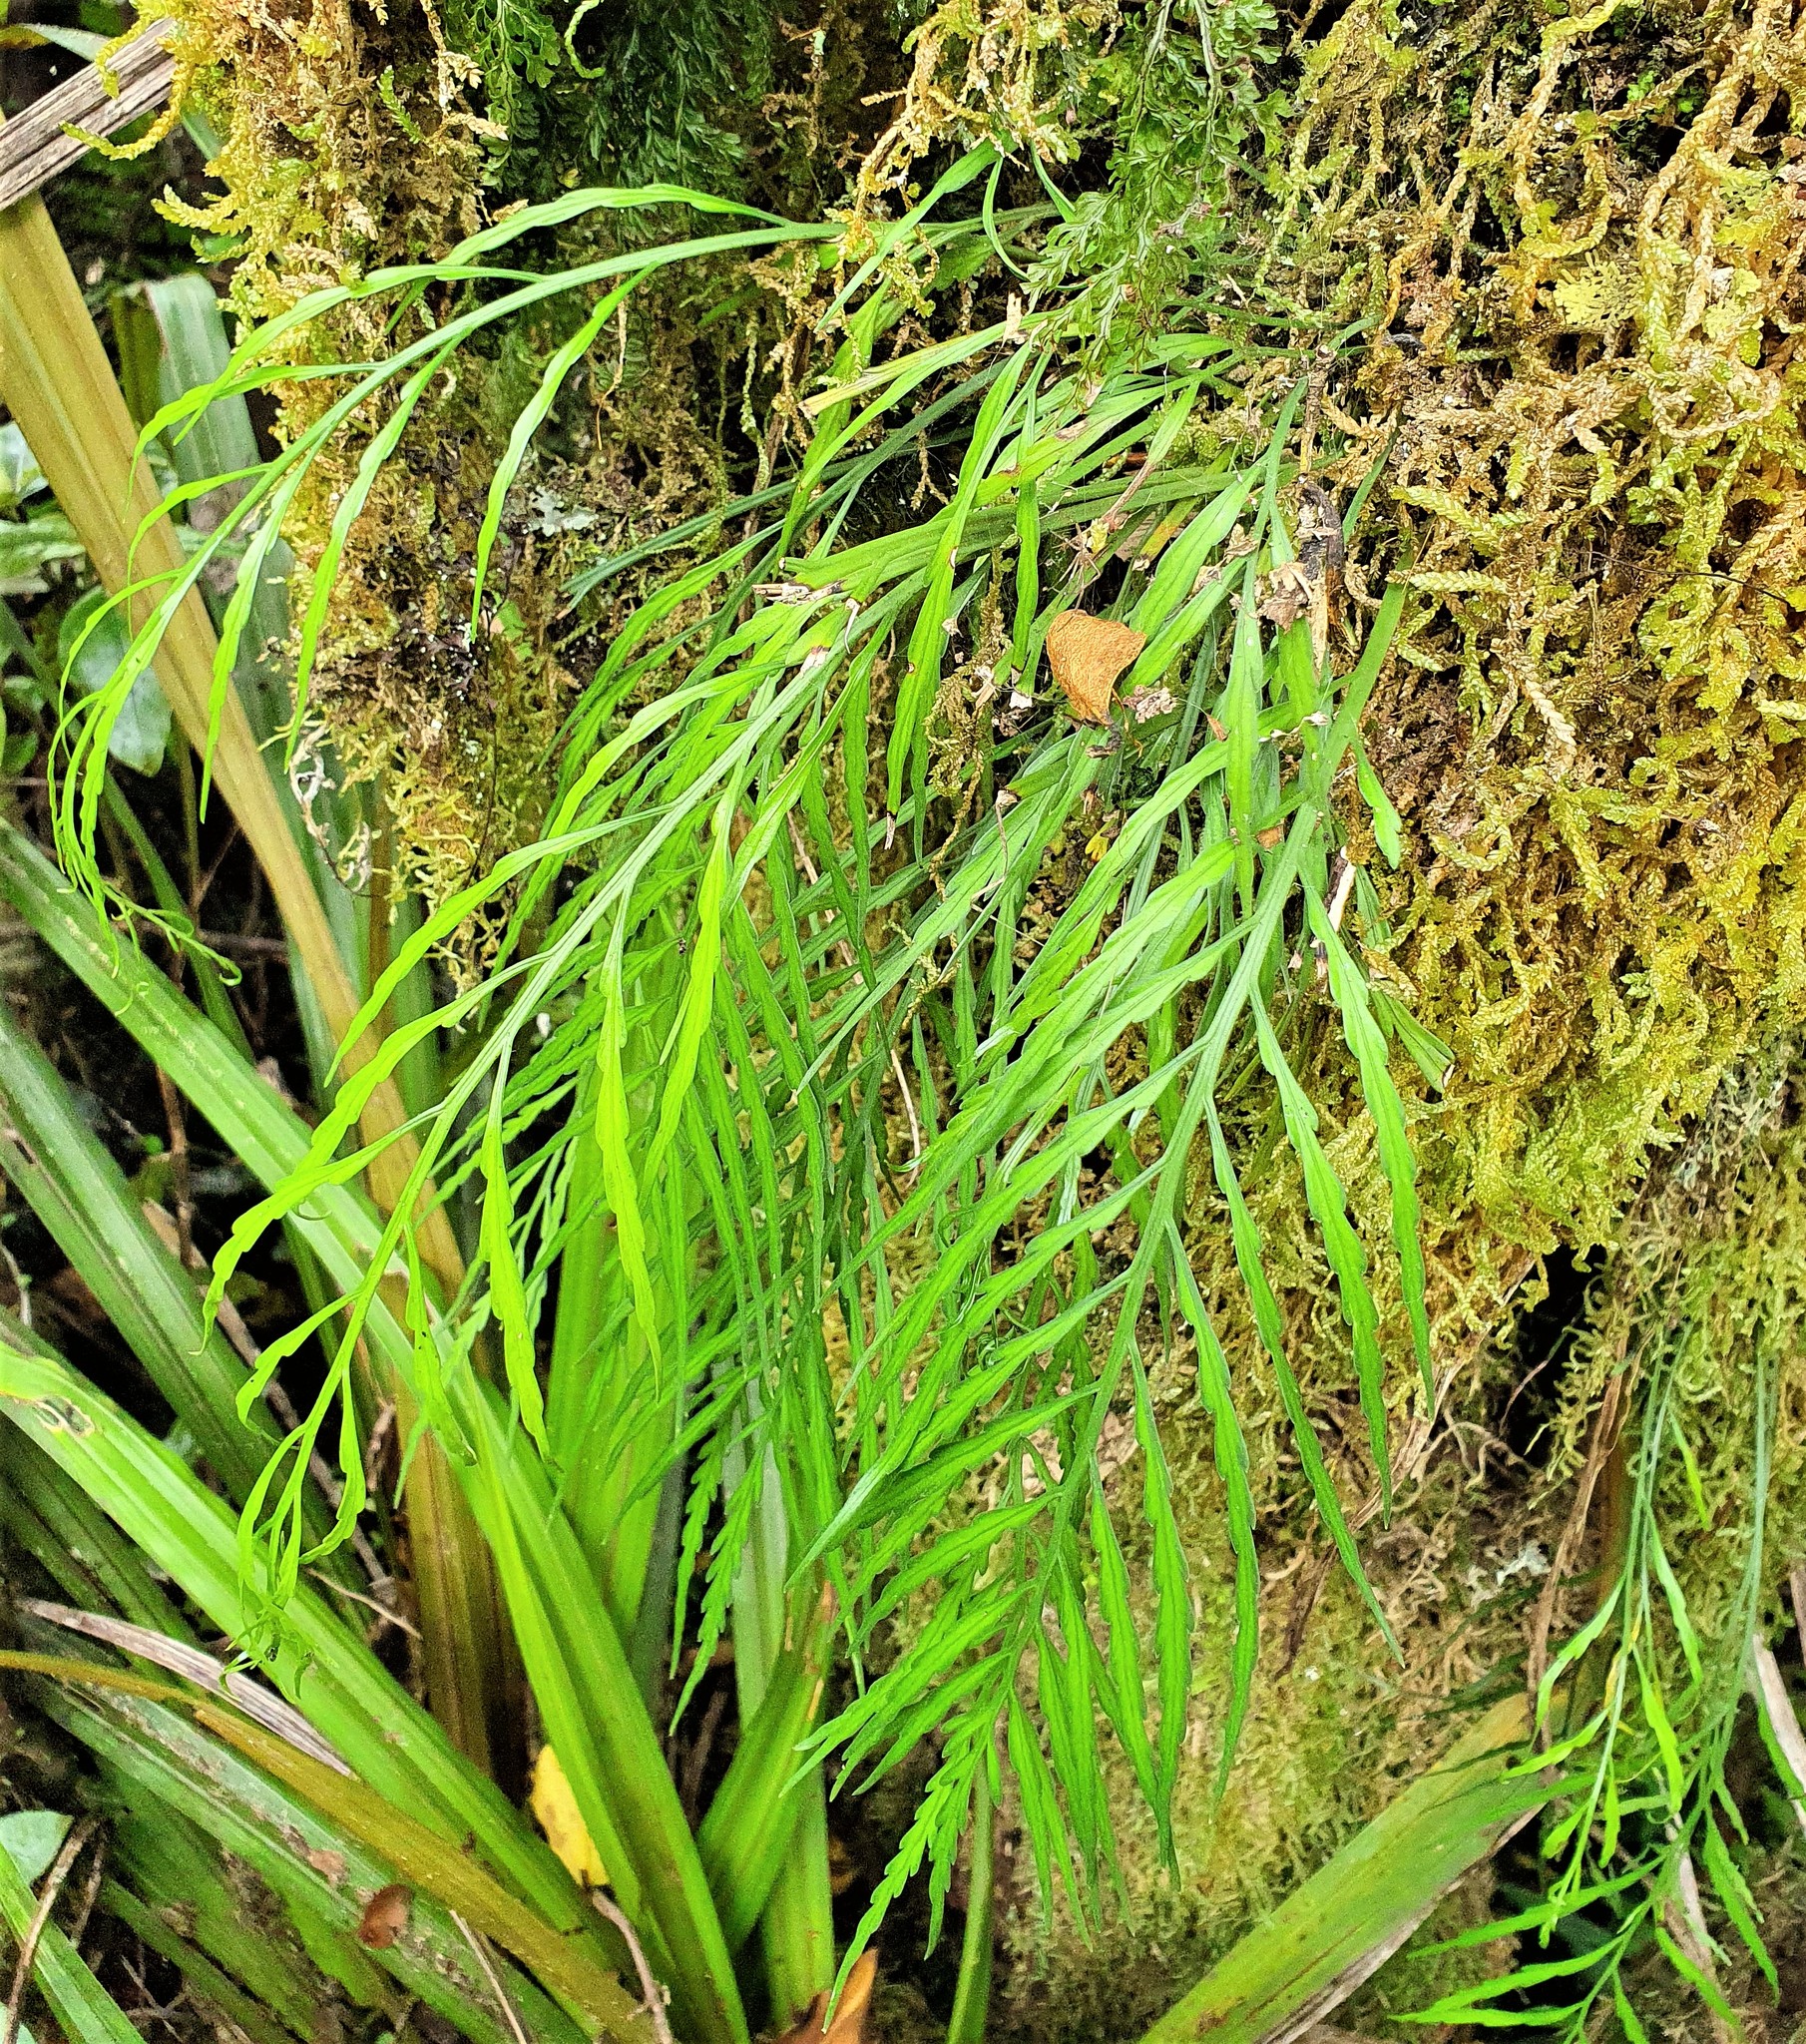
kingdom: Plantae
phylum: Tracheophyta
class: Polypodiopsida
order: Polypodiales
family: Aspleniaceae
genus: Asplenium
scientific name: Asplenium flaccidum
